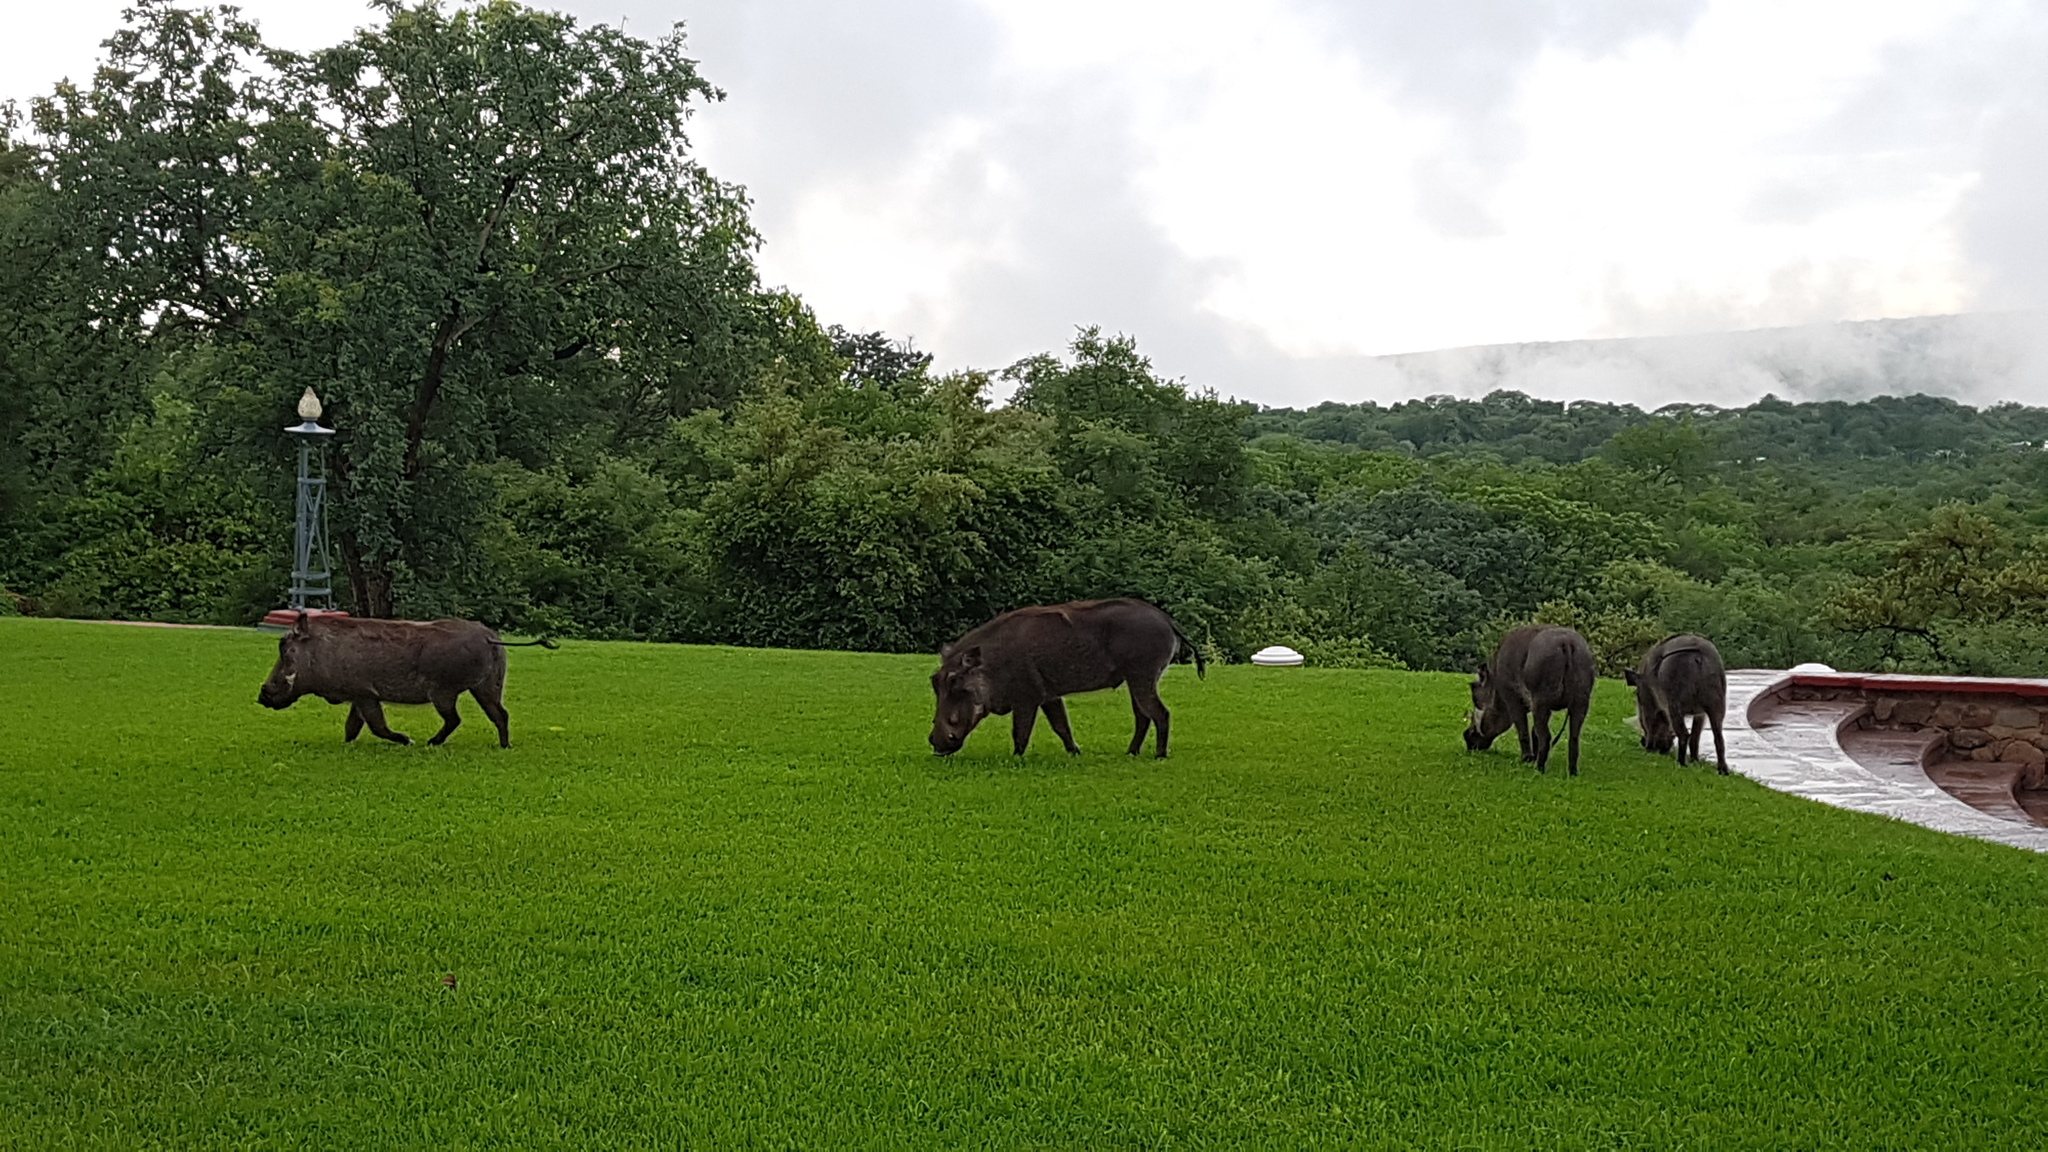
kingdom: Animalia
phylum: Chordata
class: Mammalia
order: Artiodactyla
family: Suidae
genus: Phacochoerus
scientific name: Phacochoerus africanus
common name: Common warthog
